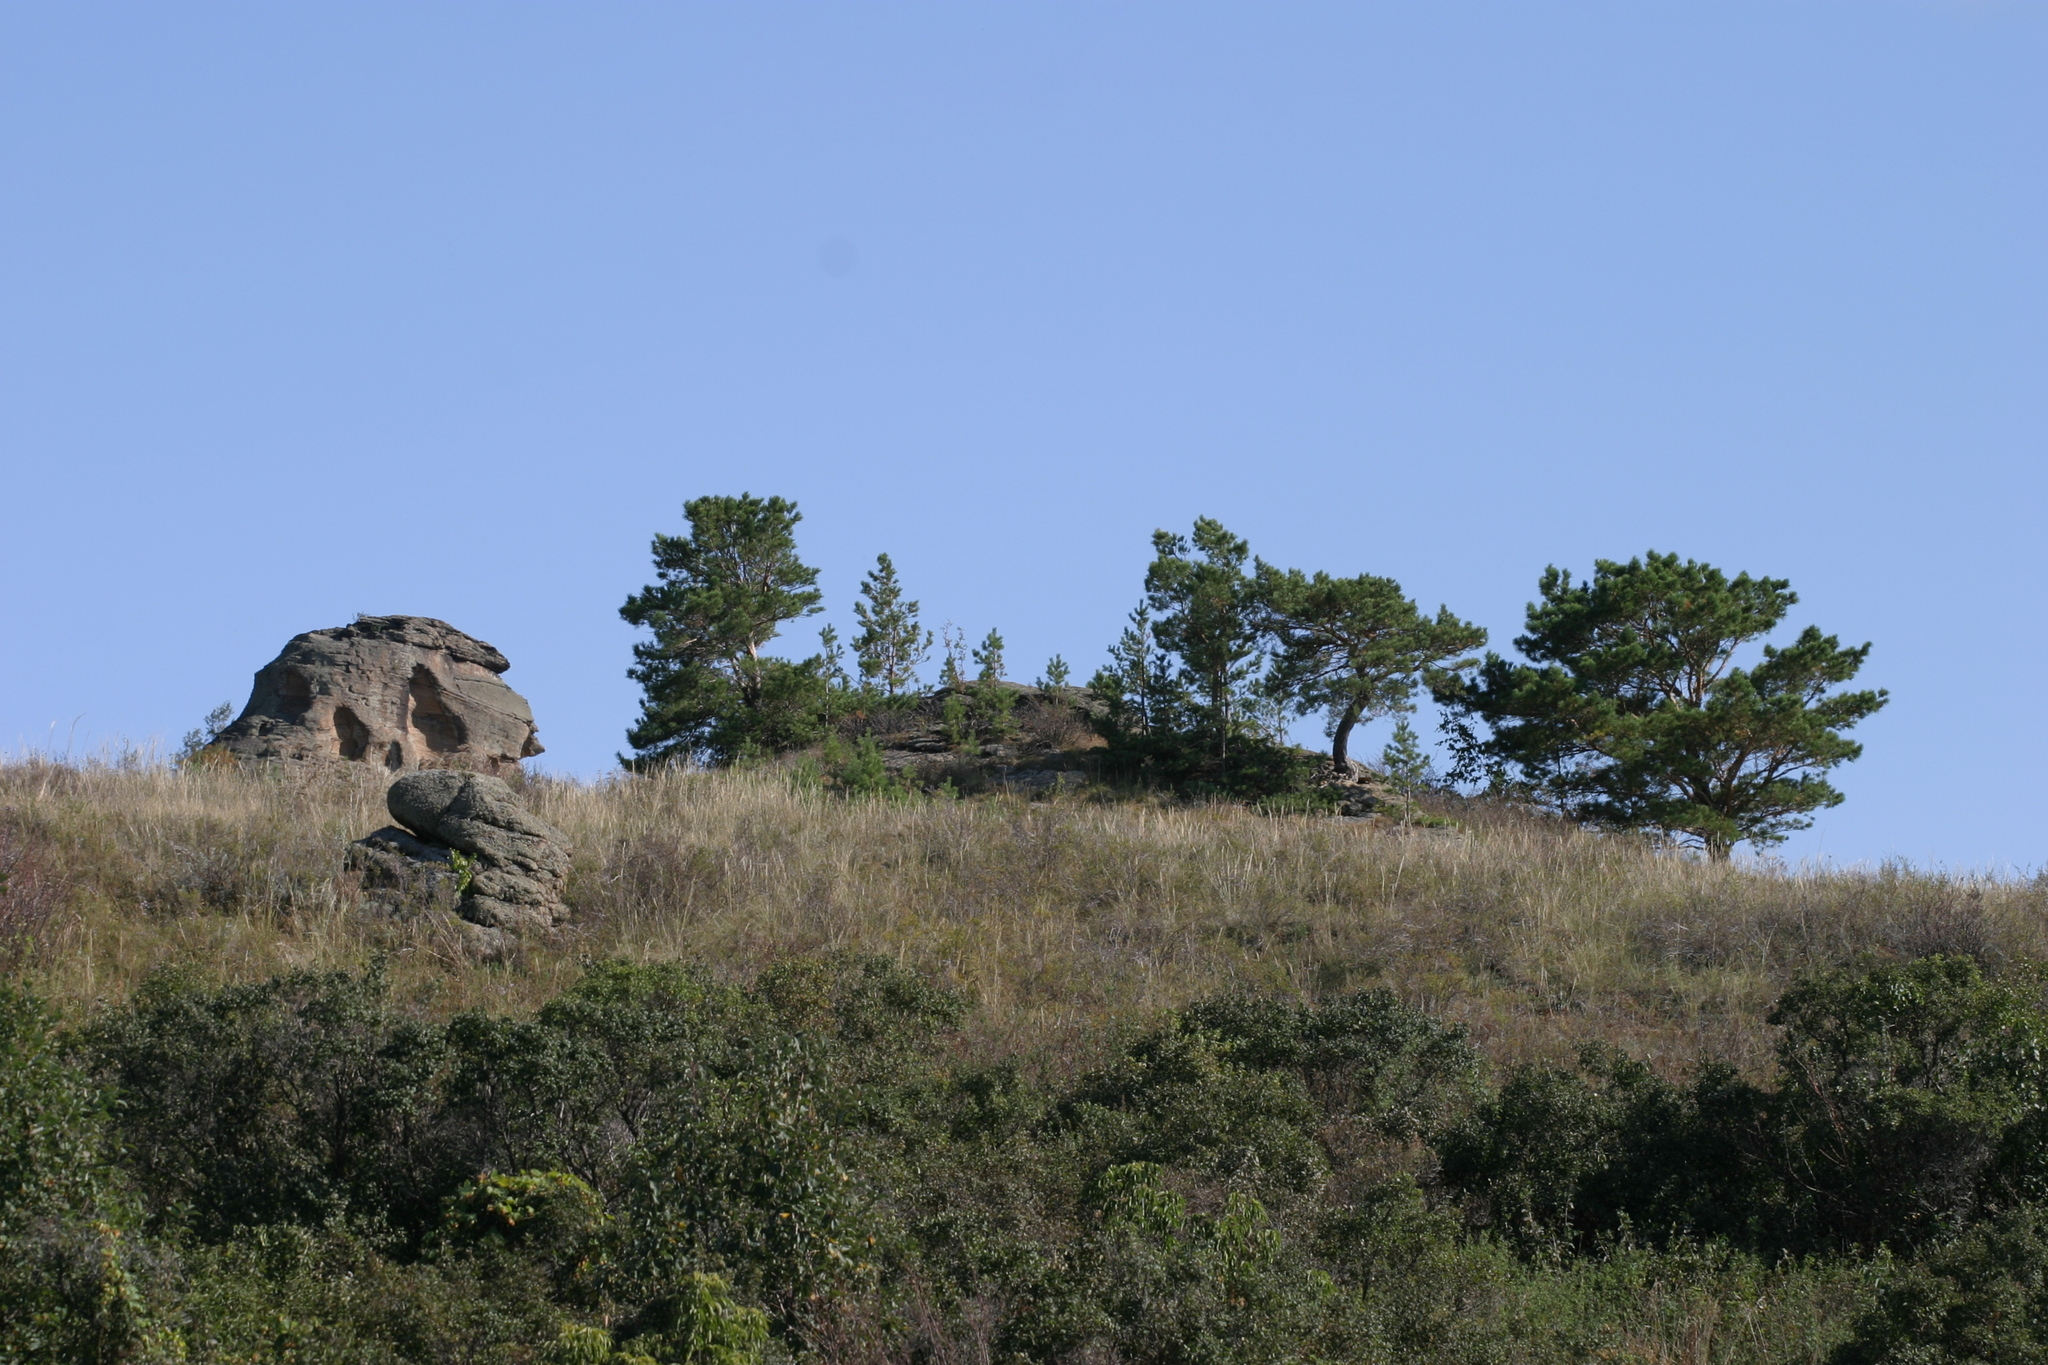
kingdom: Plantae
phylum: Tracheophyta
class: Pinopsida
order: Pinales
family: Pinaceae
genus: Pinus
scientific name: Pinus sylvestris
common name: Scots pine
